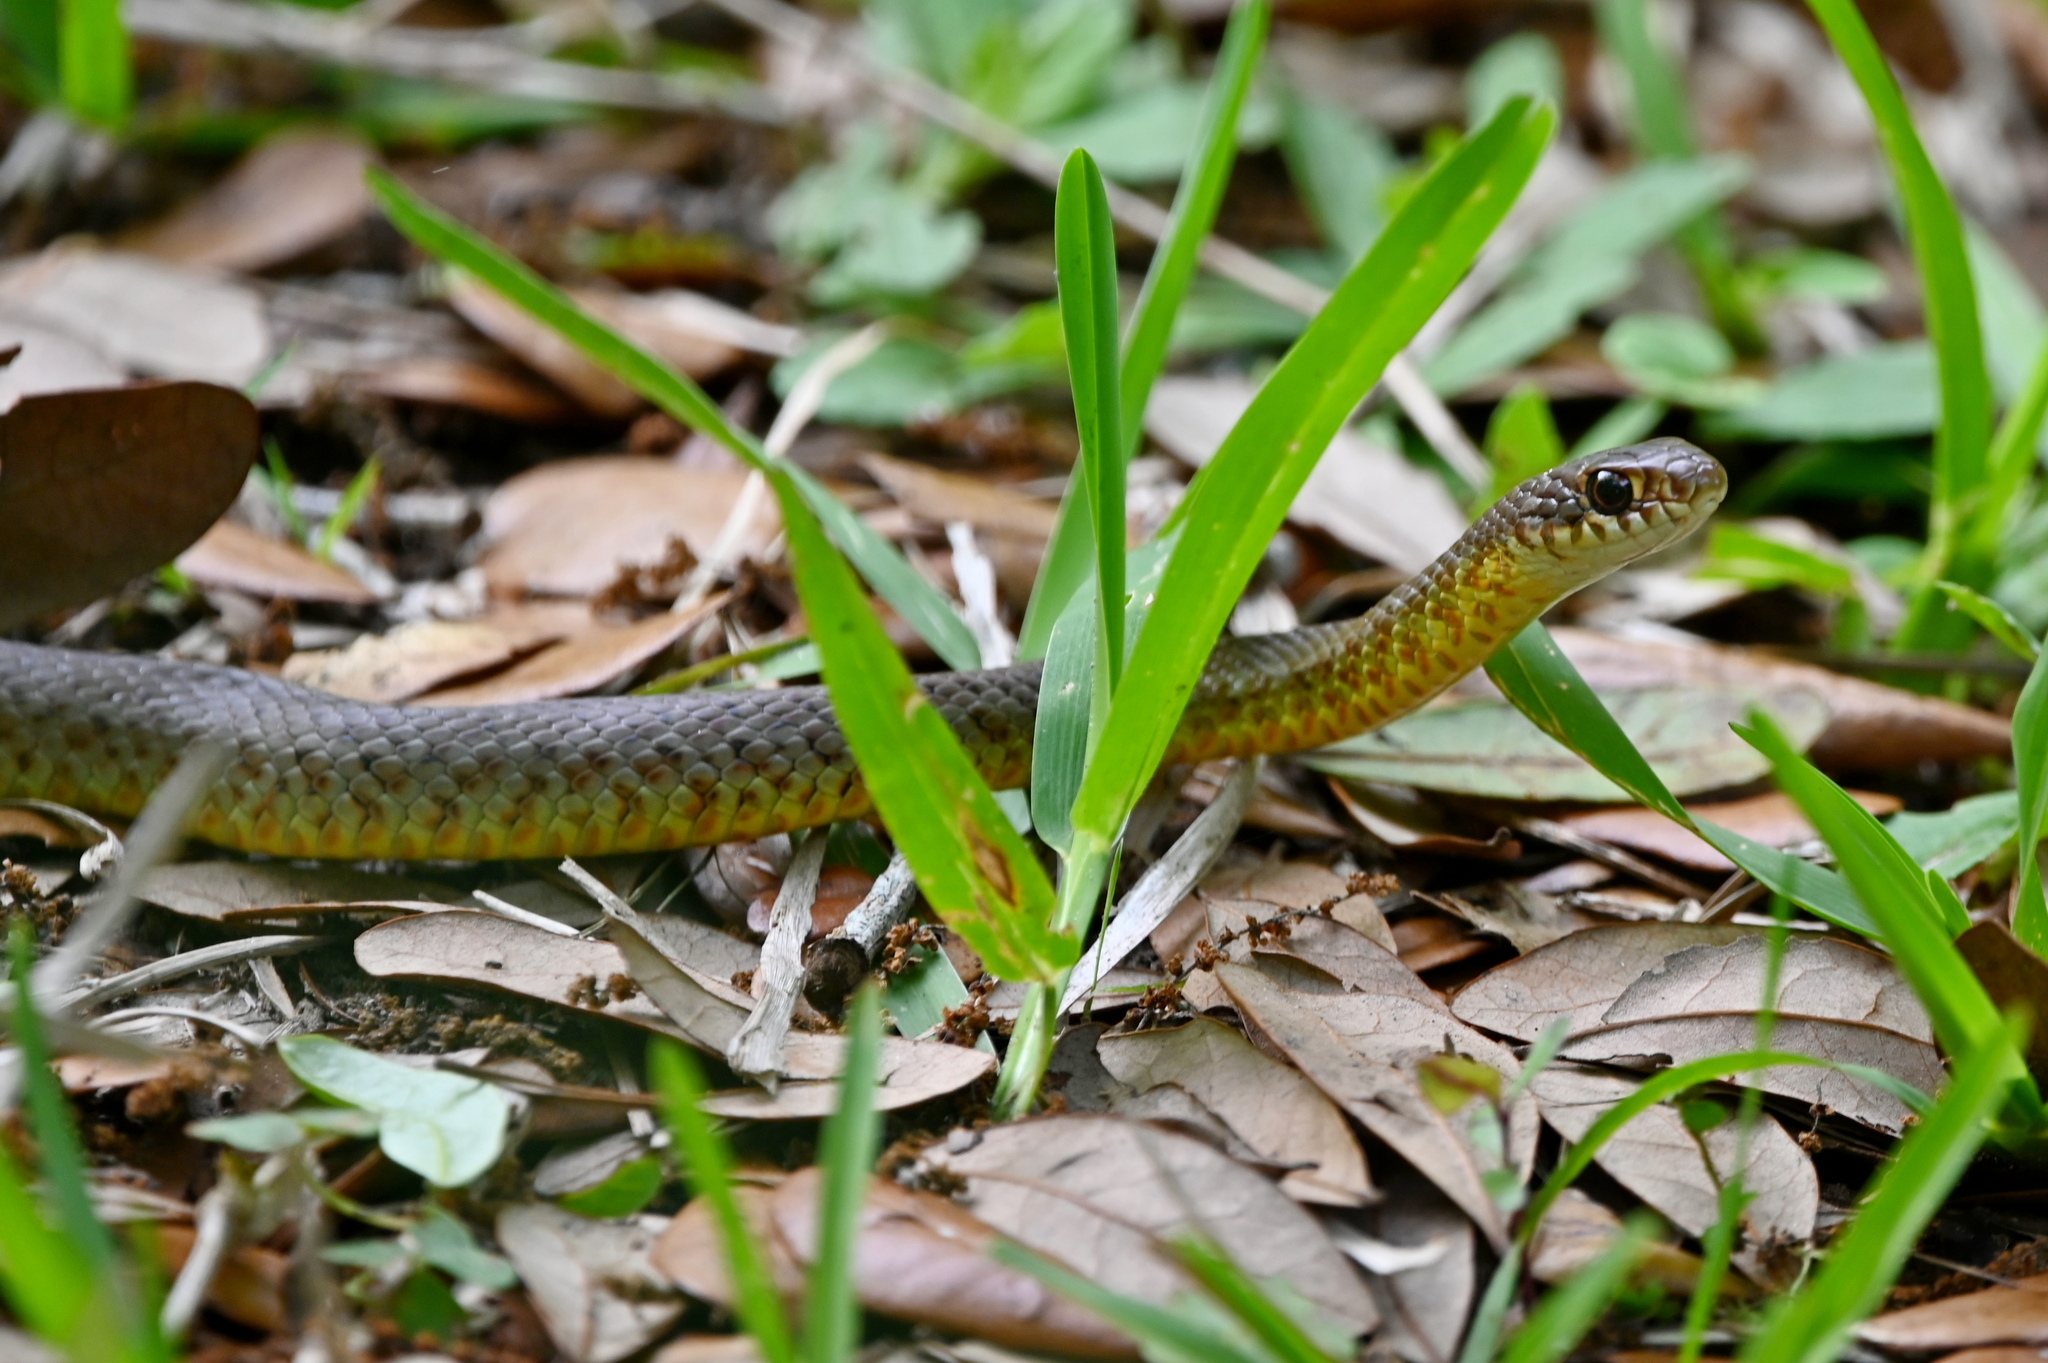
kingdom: Animalia
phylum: Chordata
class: Squamata
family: Colubridae
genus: Coluber
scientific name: Coluber constrictor
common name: Eastern racer
